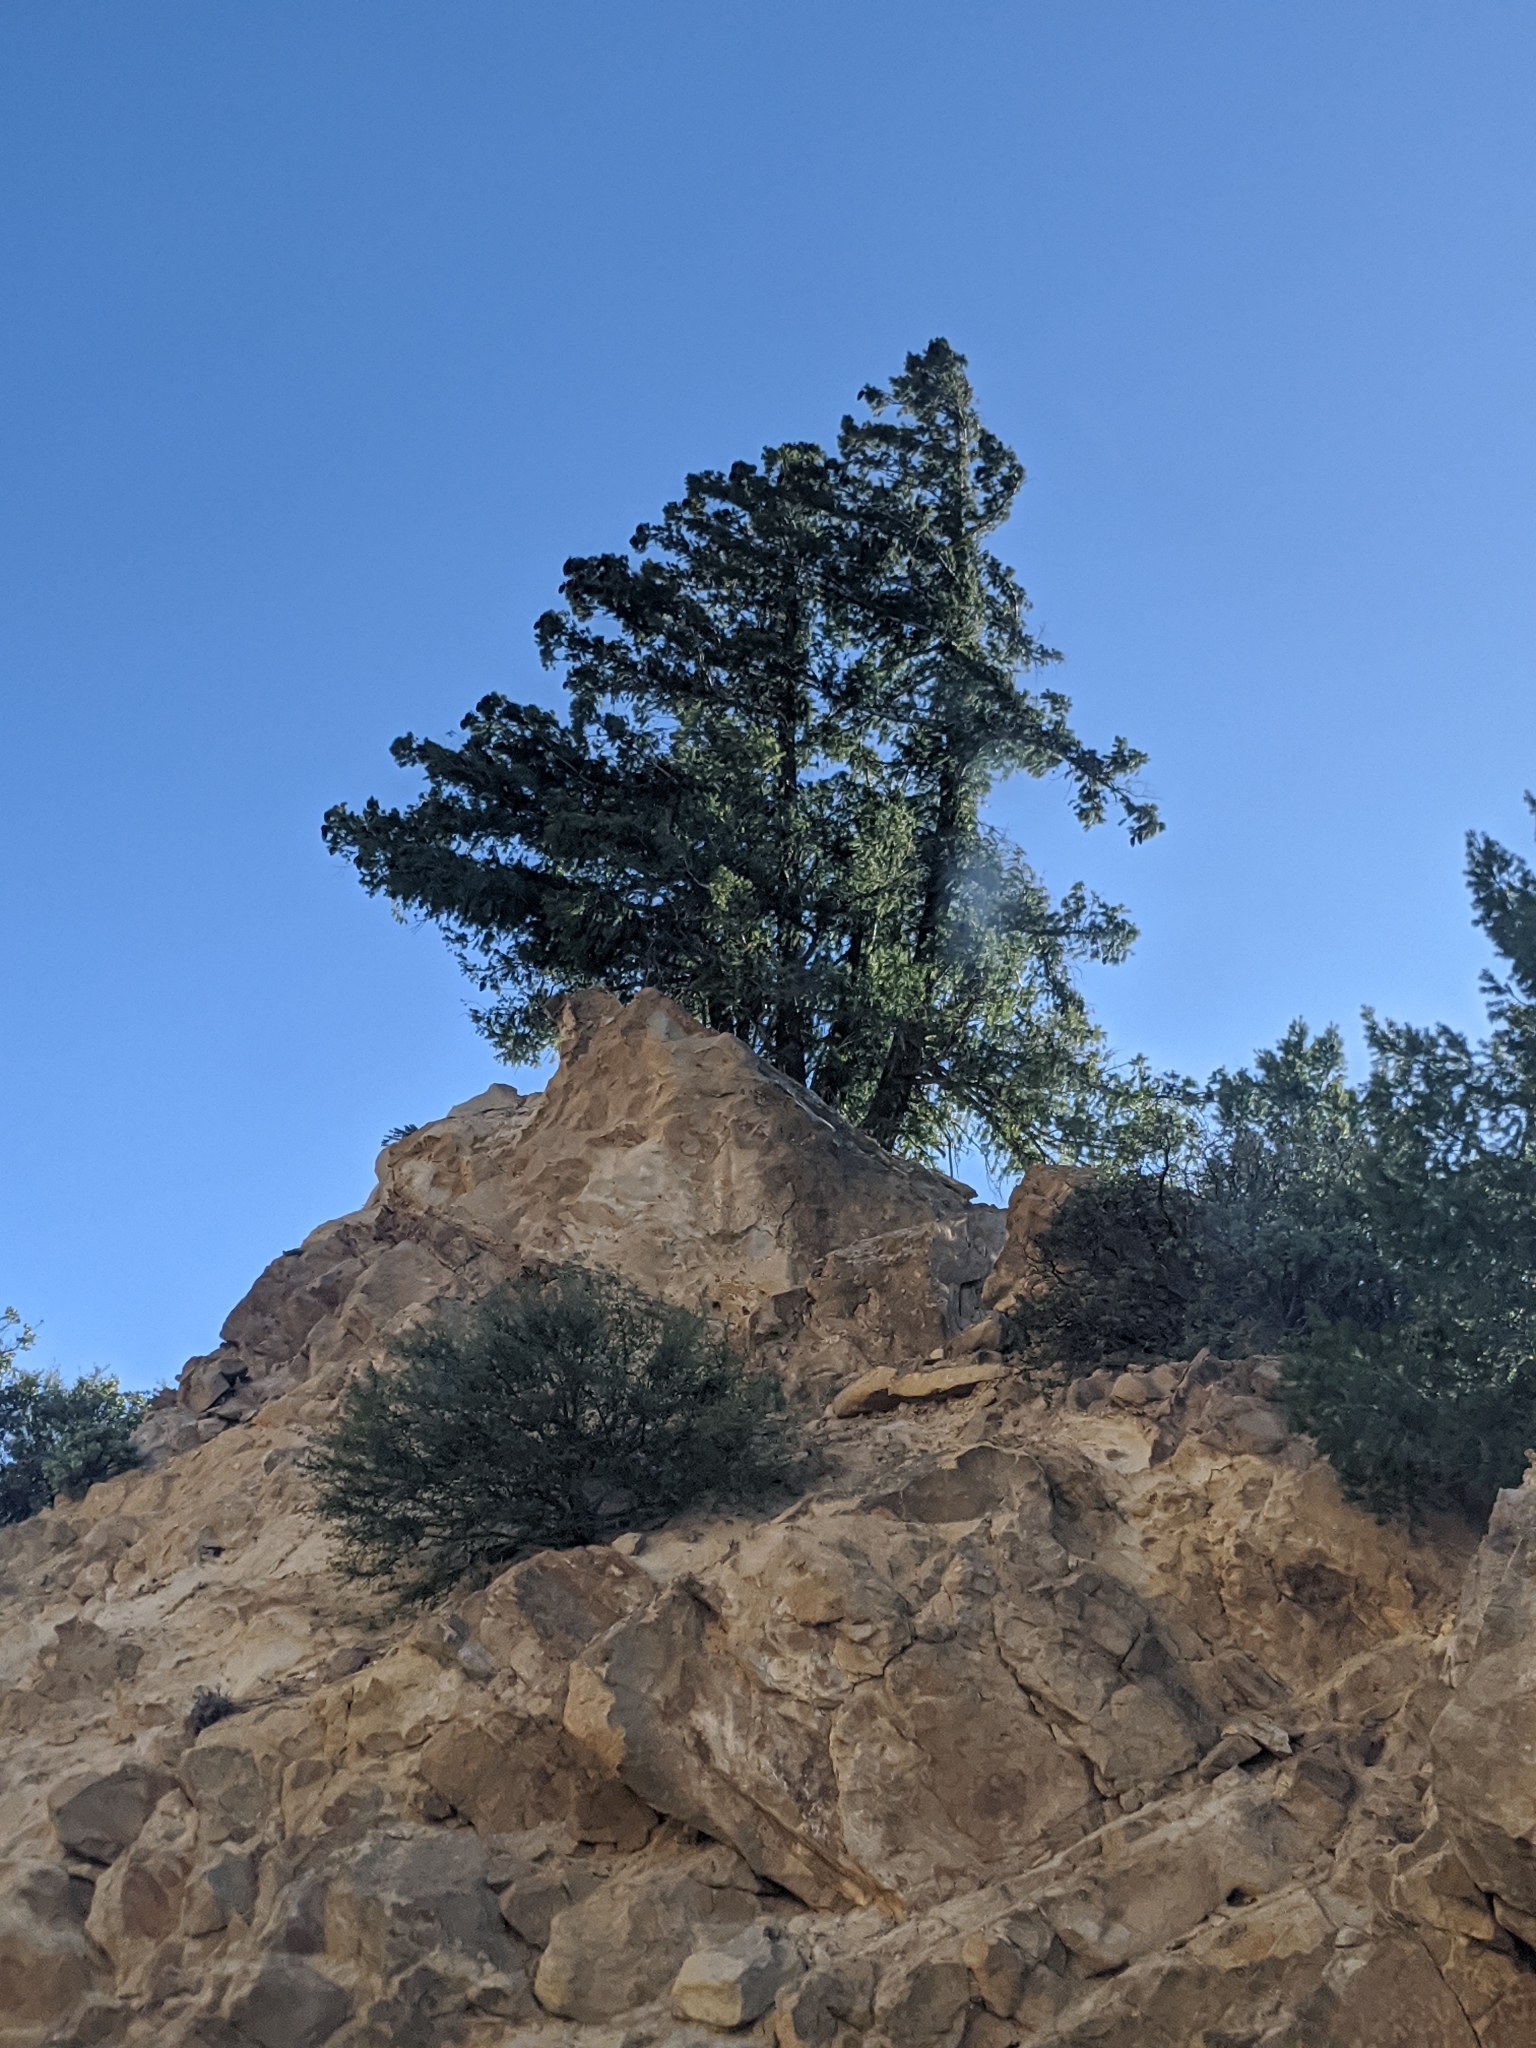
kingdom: Plantae
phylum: Tracheophyta
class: Pinopsida
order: Pinales
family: Pinaceae
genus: Pseudotsuga
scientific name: Pseudotsuga macrocarpa
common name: Big-cone douglas-fir
